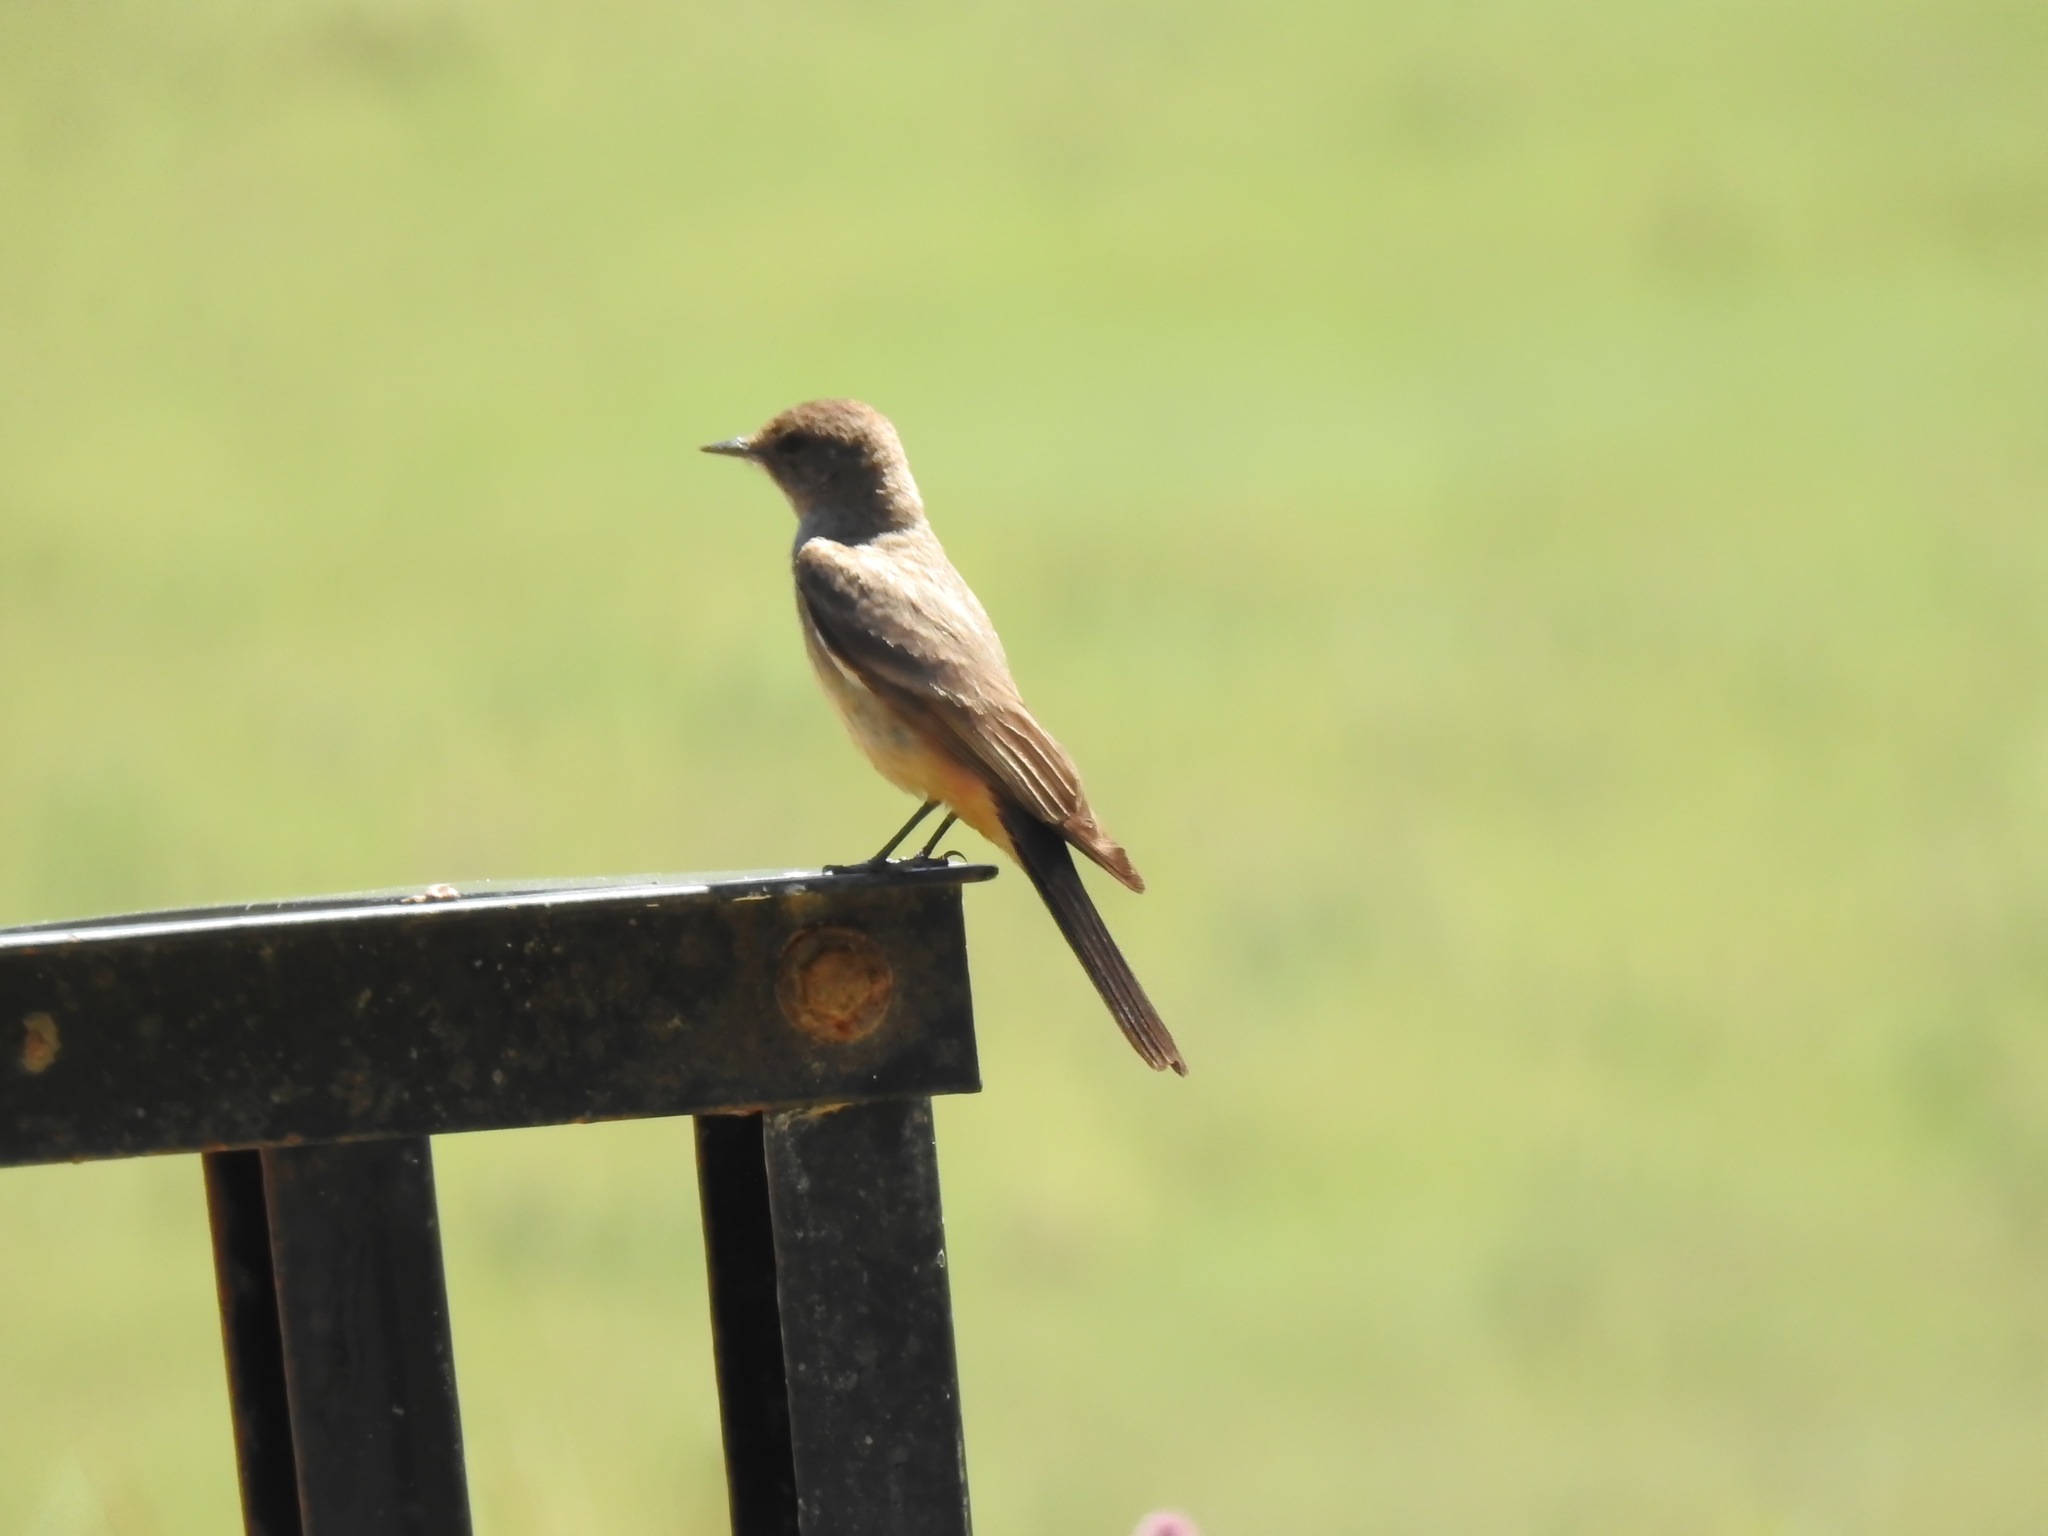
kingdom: Animalia
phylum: Chordata
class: Aves
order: Passeriformes
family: Tyrannidae
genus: Sayornis
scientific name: Sayornis saya
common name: Say's phoebe
